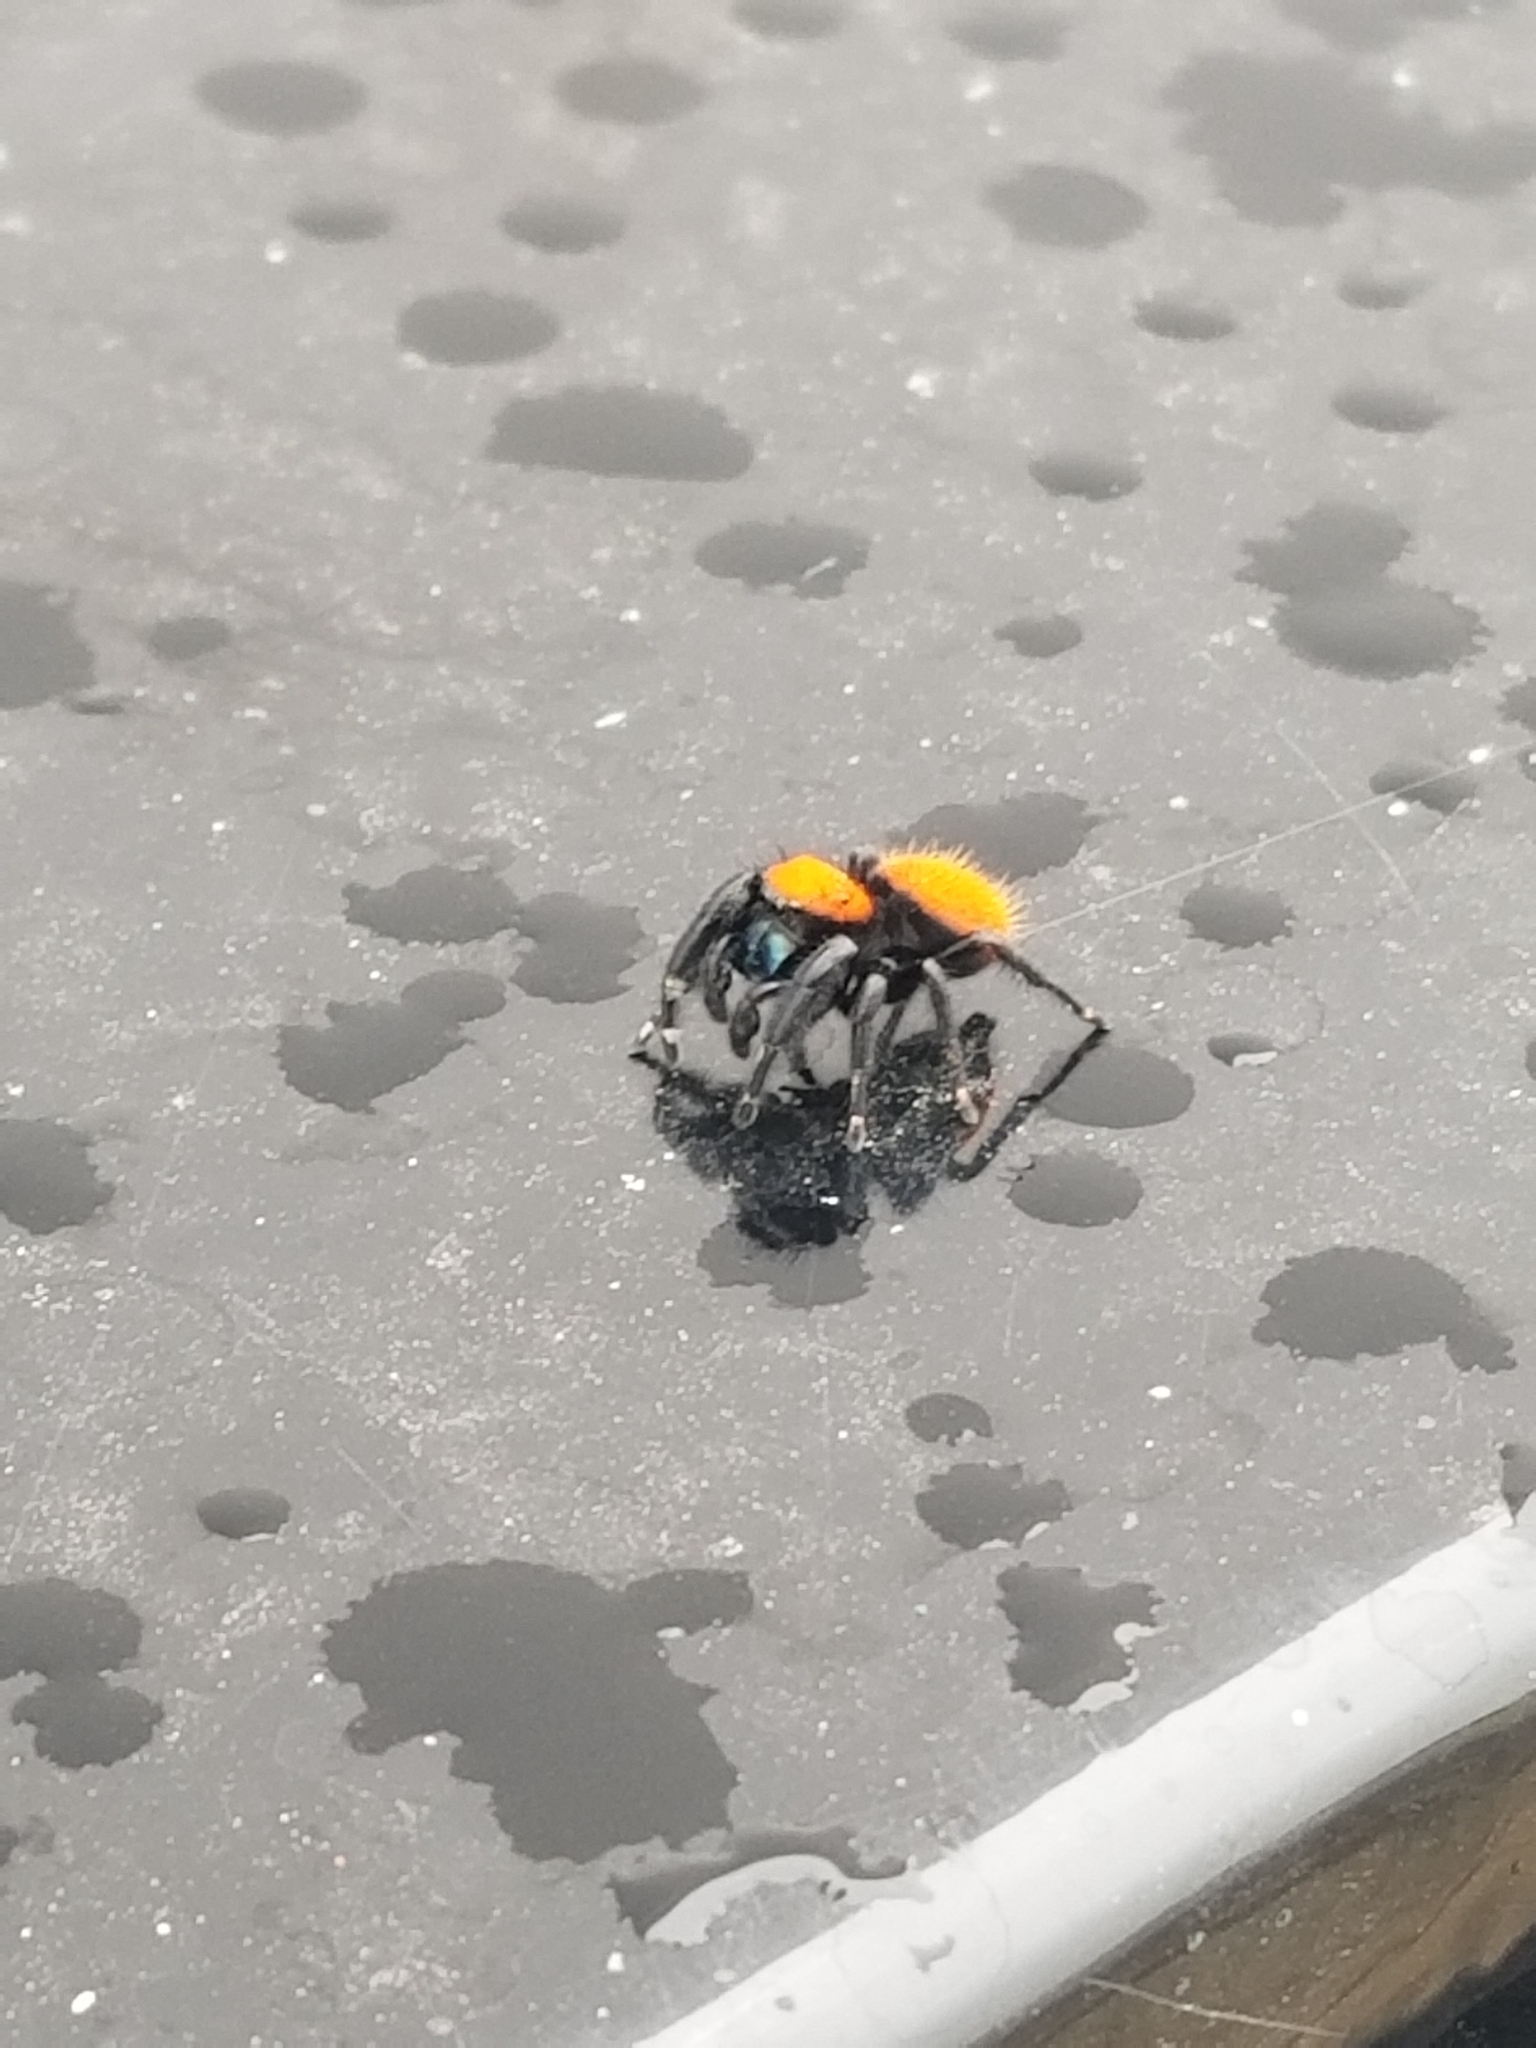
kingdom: Animalia
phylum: Arthropoda
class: Arachnida
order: Araneae
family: Salticidae
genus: Phidippus
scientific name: Phidippus apacheanus
